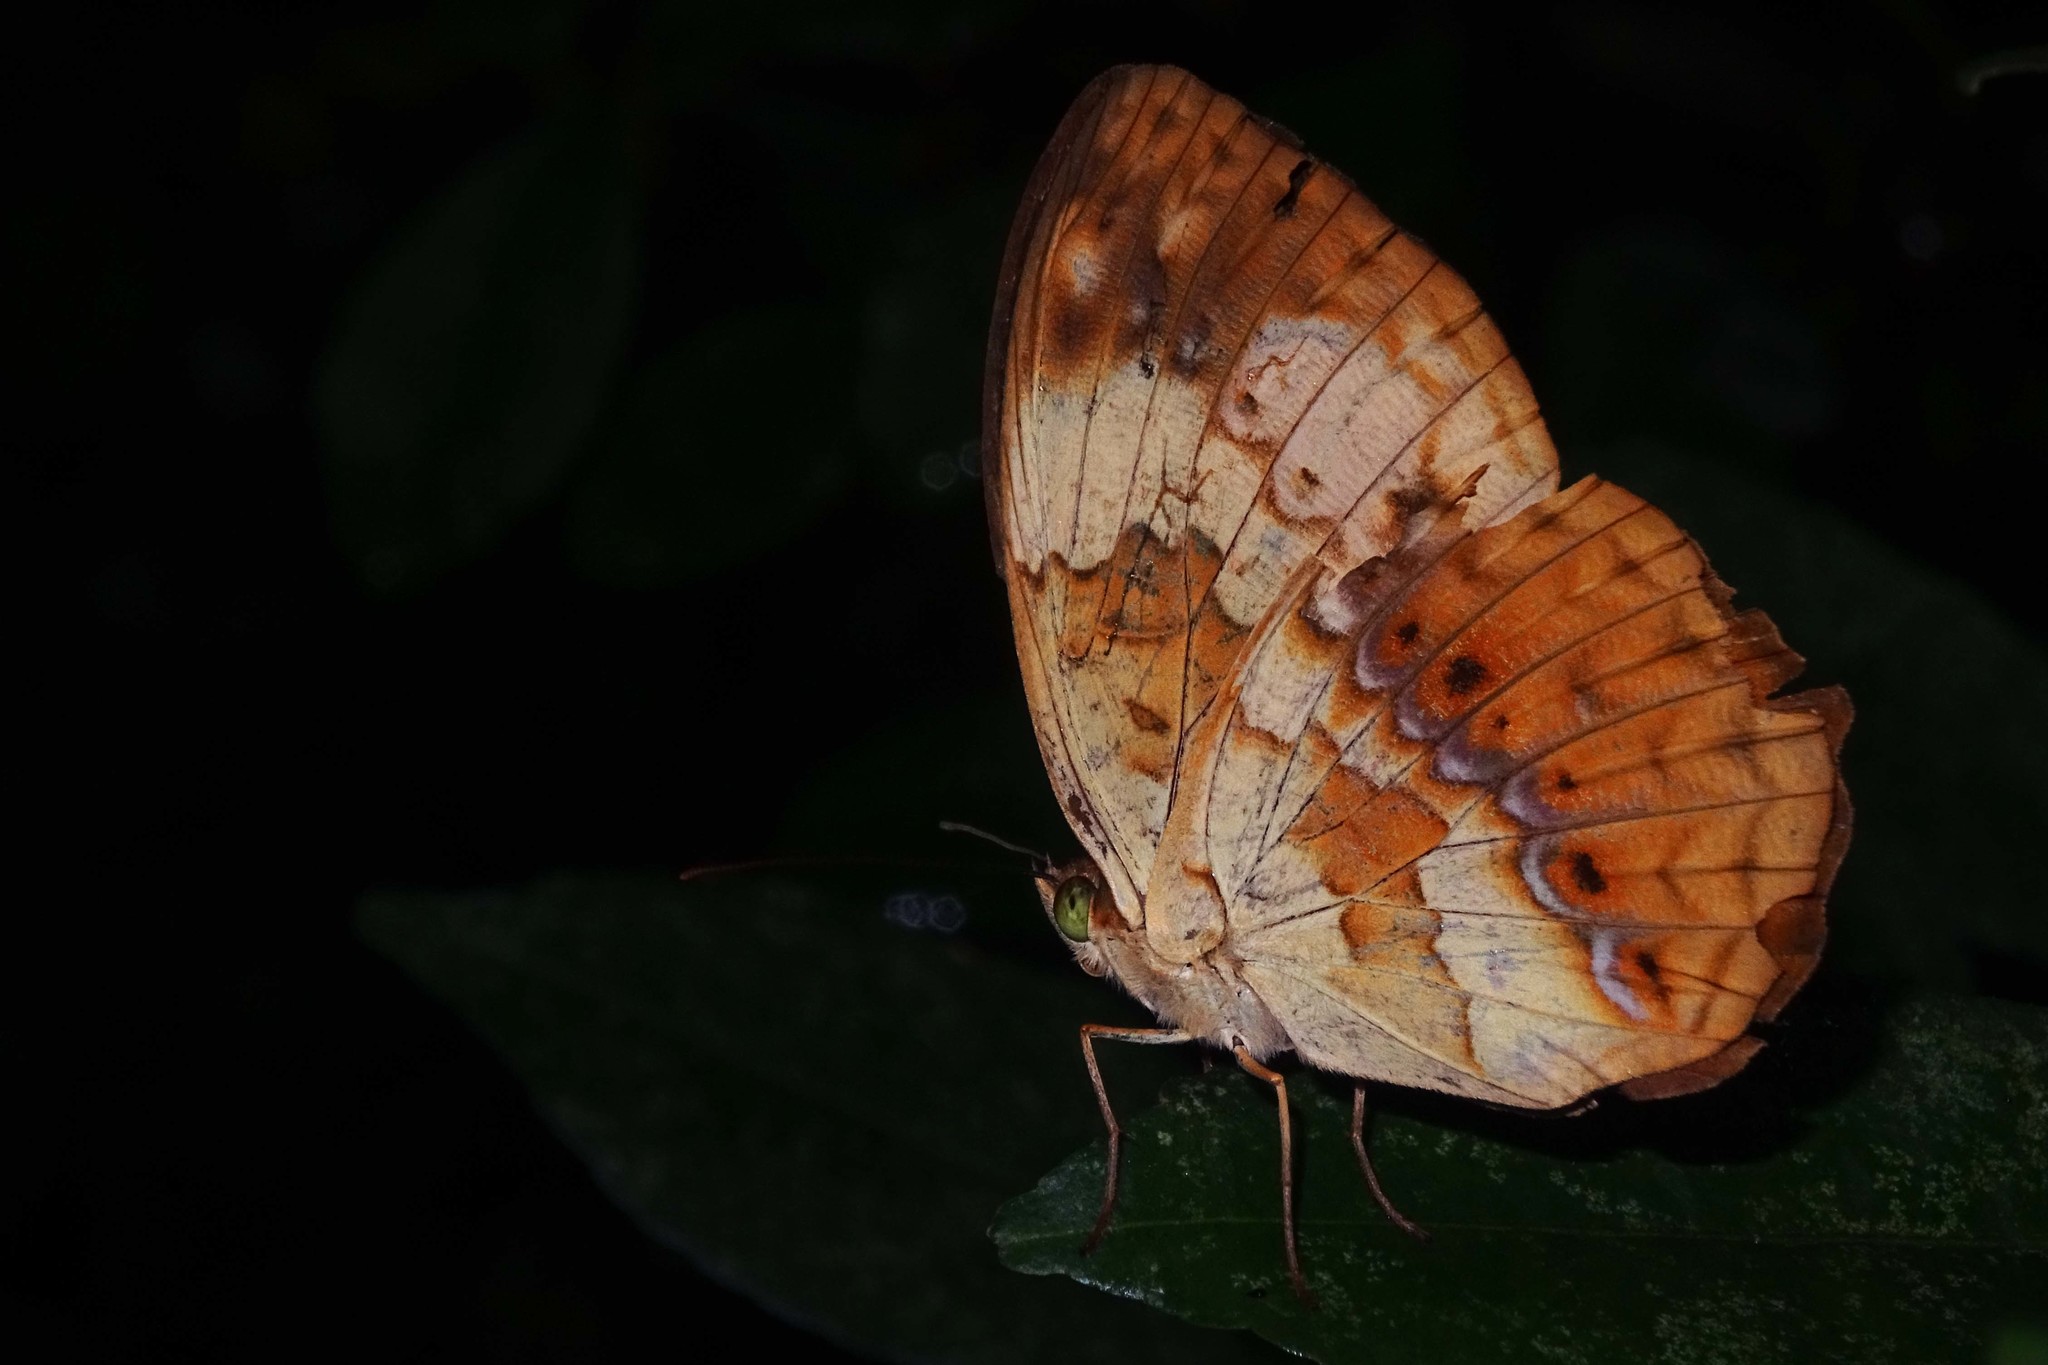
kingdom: Animalia
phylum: Arthropoda
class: Insecta
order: Lepidoptera
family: Nymphalidae
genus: Cupha
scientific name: Cupha erymanthis
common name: Rustic
